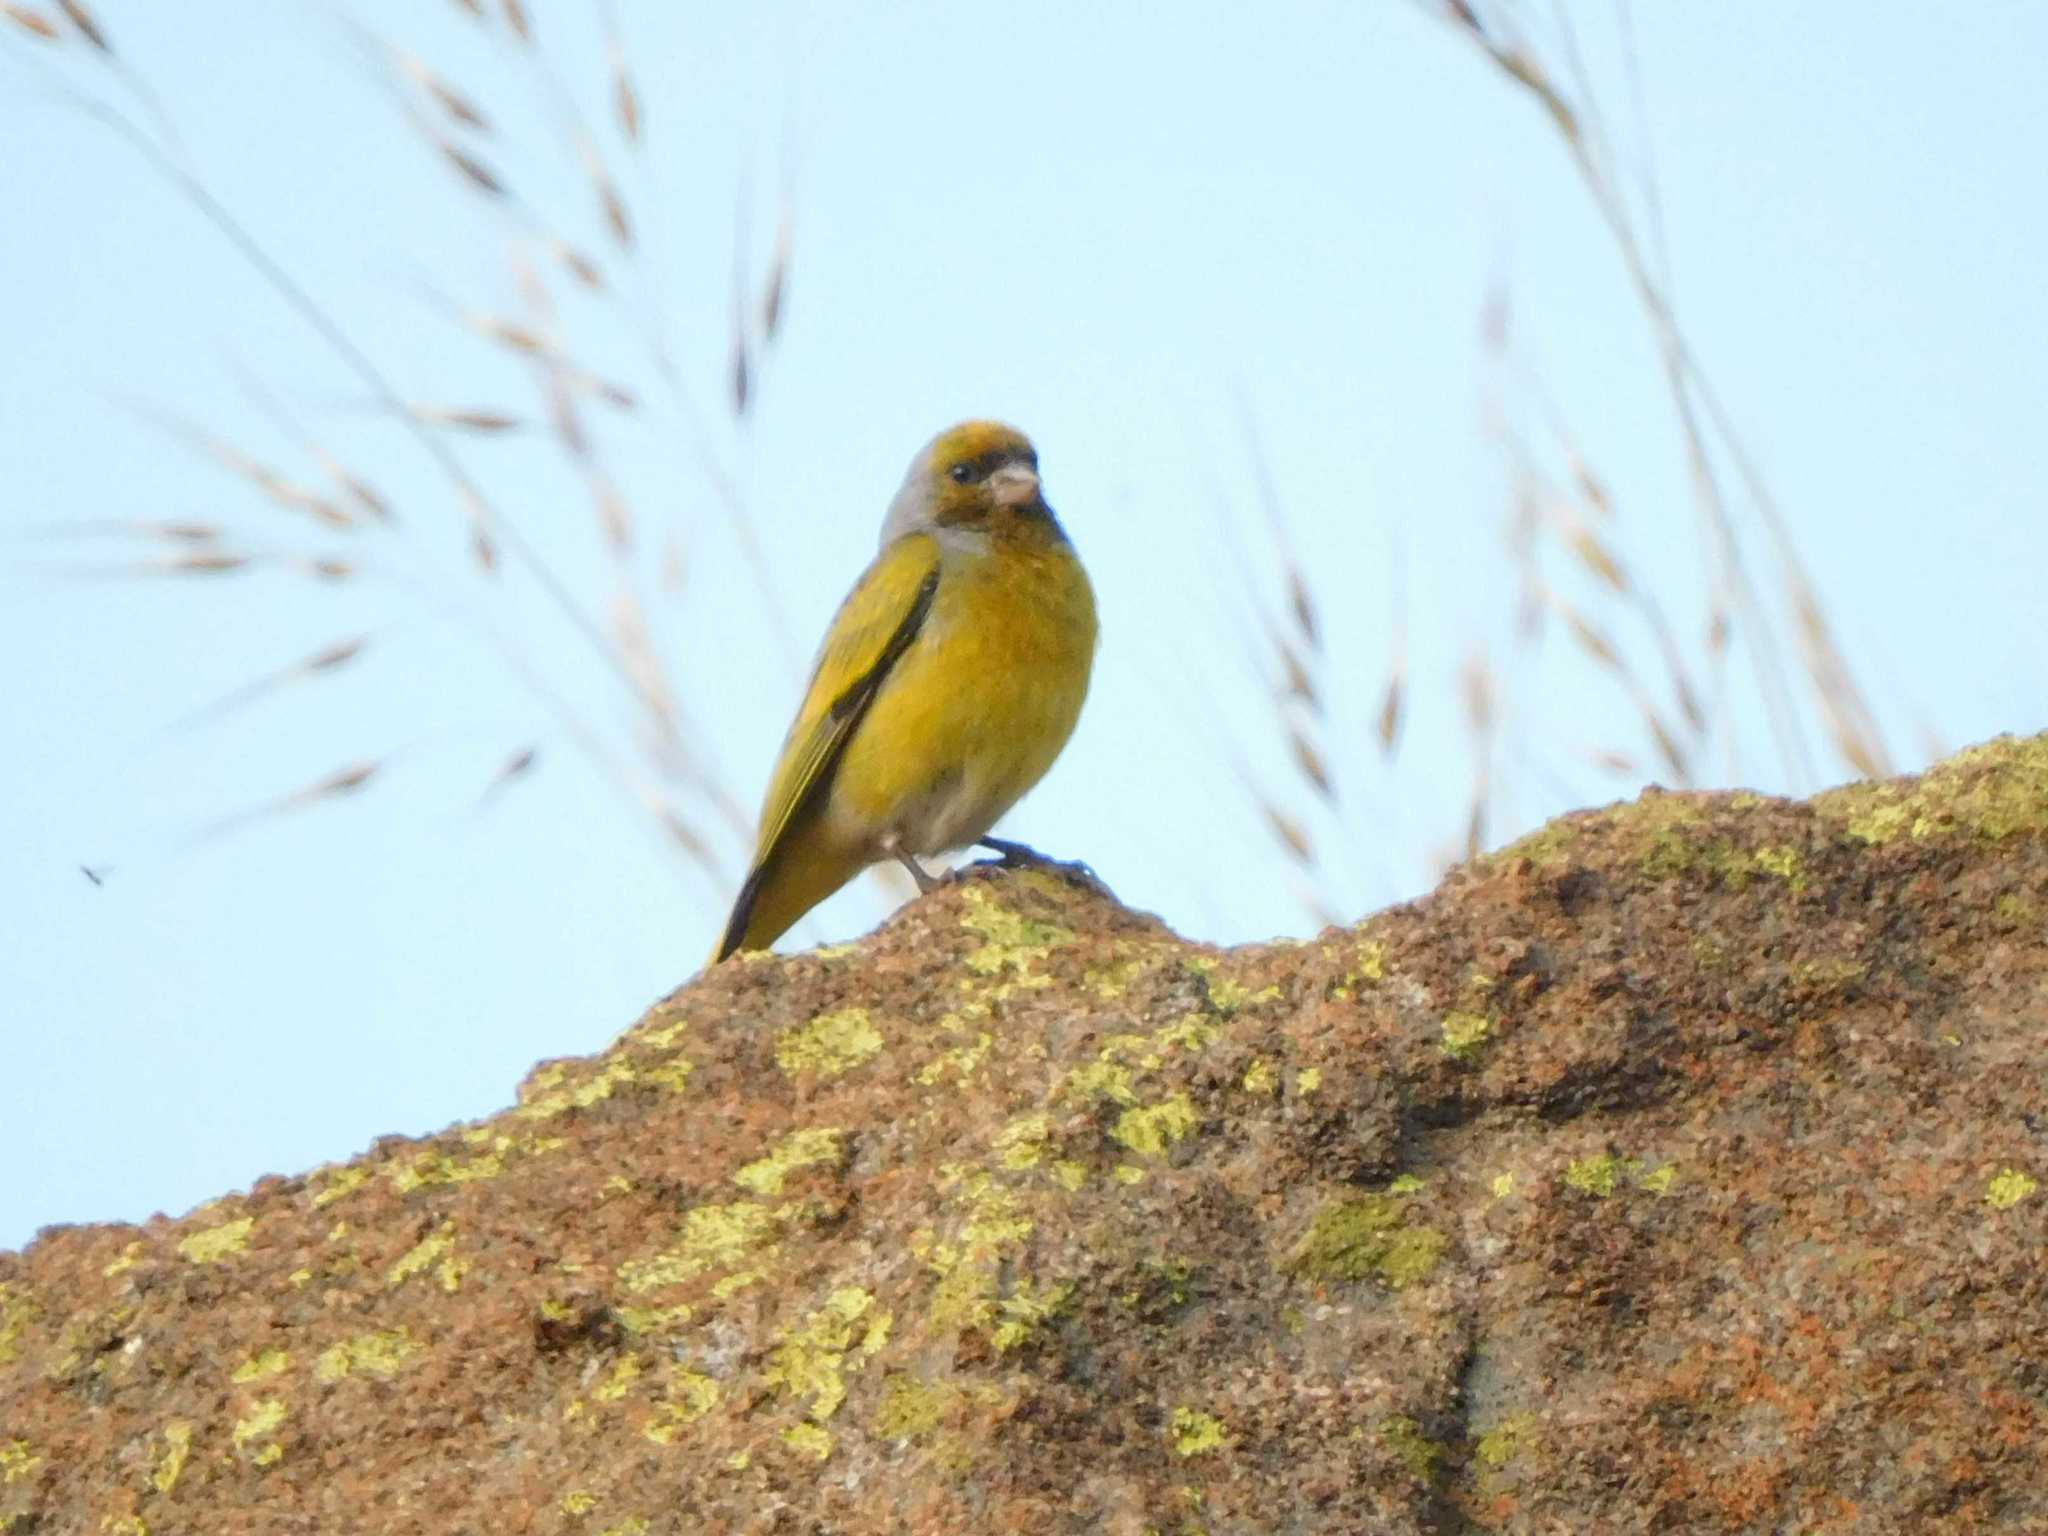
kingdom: Animalia
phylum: Chordata
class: Aves
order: Passeriformes
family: Fringillidae
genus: Serinus
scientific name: Serinus canicollis
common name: Cape canary
